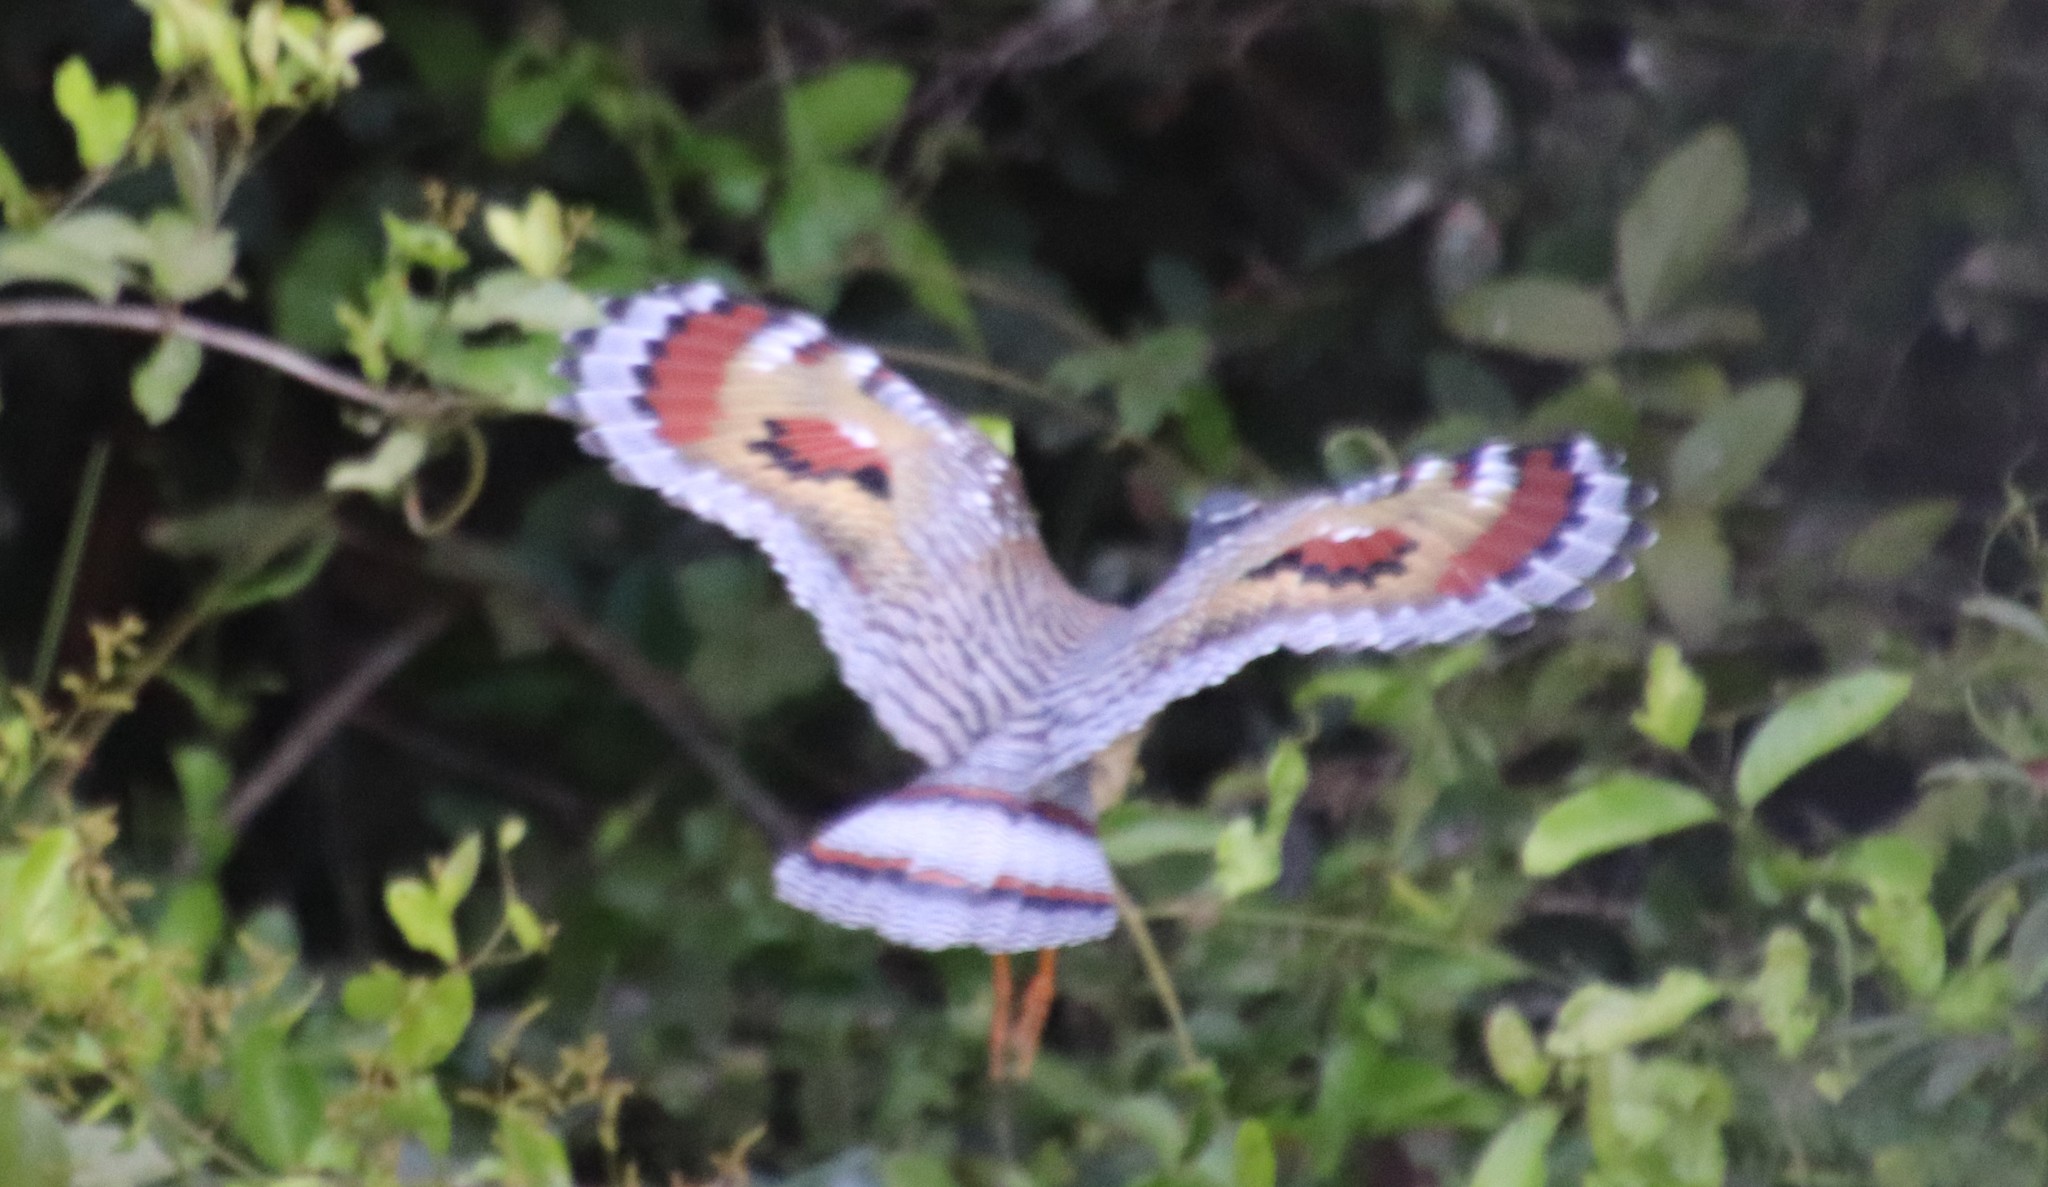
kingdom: Animalia
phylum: Chordata
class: Aves
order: Eurypygiformes
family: Eurypygidae
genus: Eurypyga
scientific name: Eurypyga helias
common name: Sunbittern
